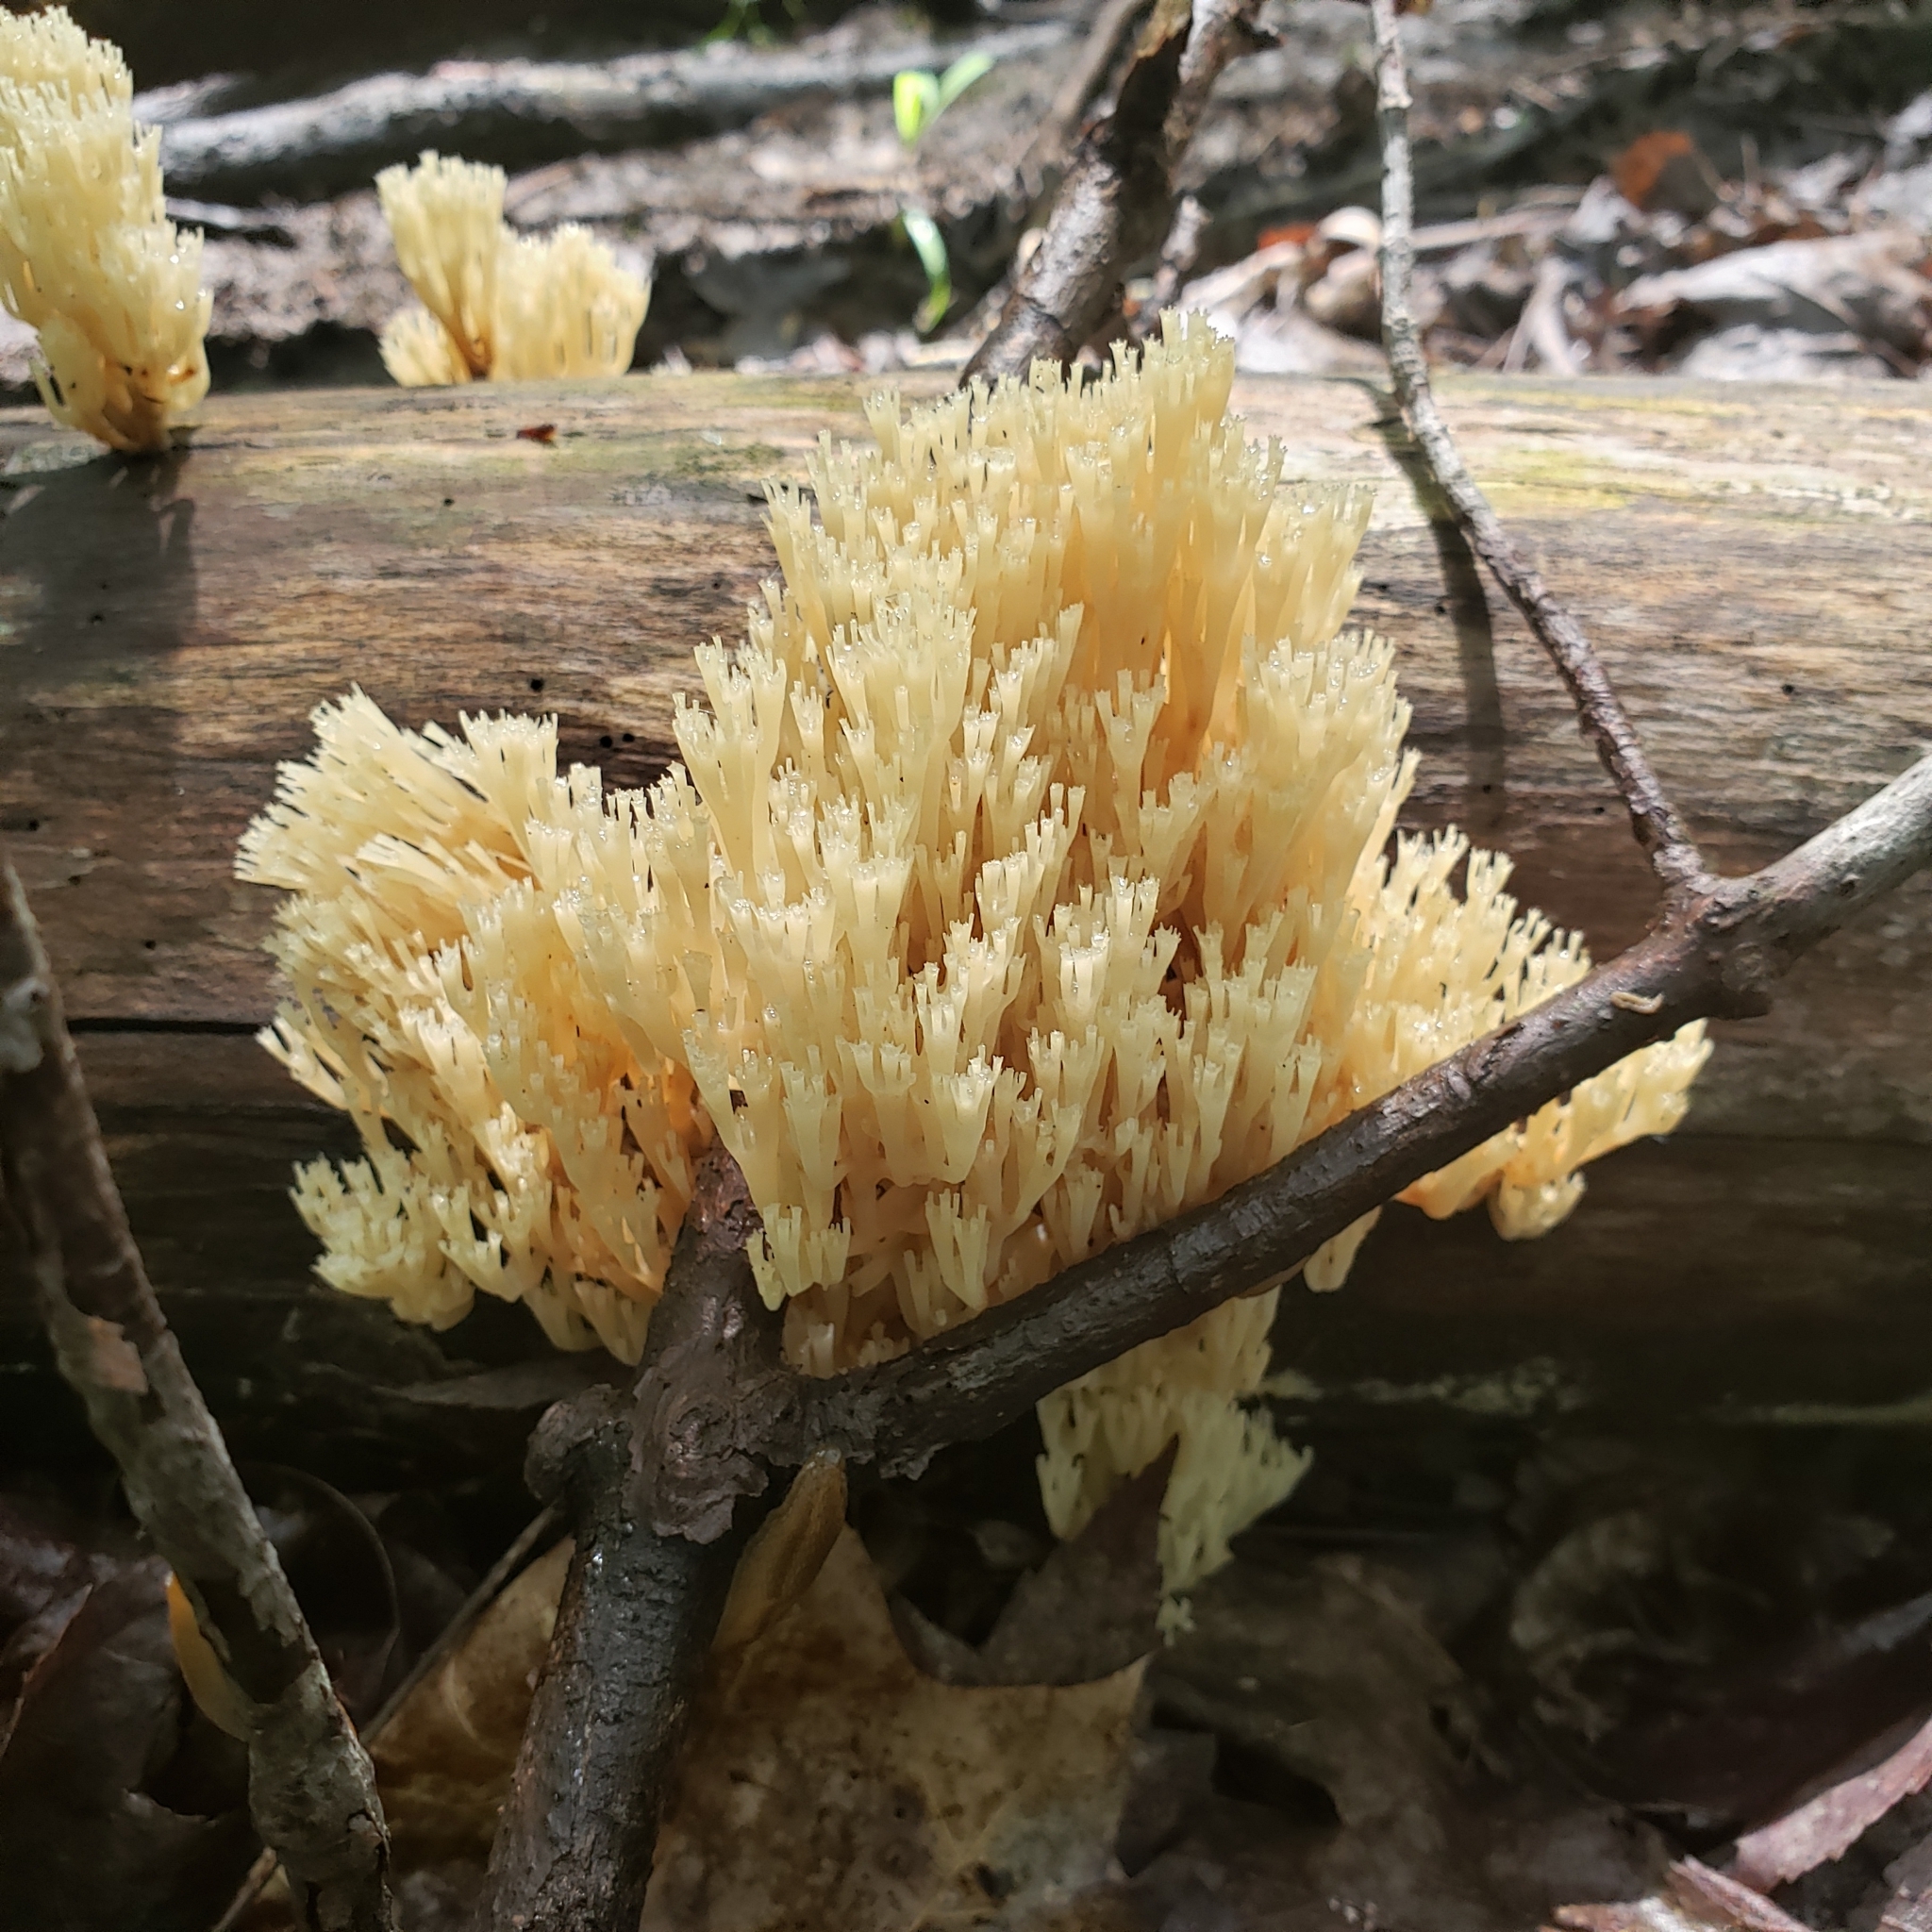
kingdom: Fungi
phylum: Basidiomycota
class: Agaricomycetes
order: Russulales
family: Auriscalpiaceae
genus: Artomyces
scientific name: Artomyces pyxidatus
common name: Crown-tipped coral fungus
